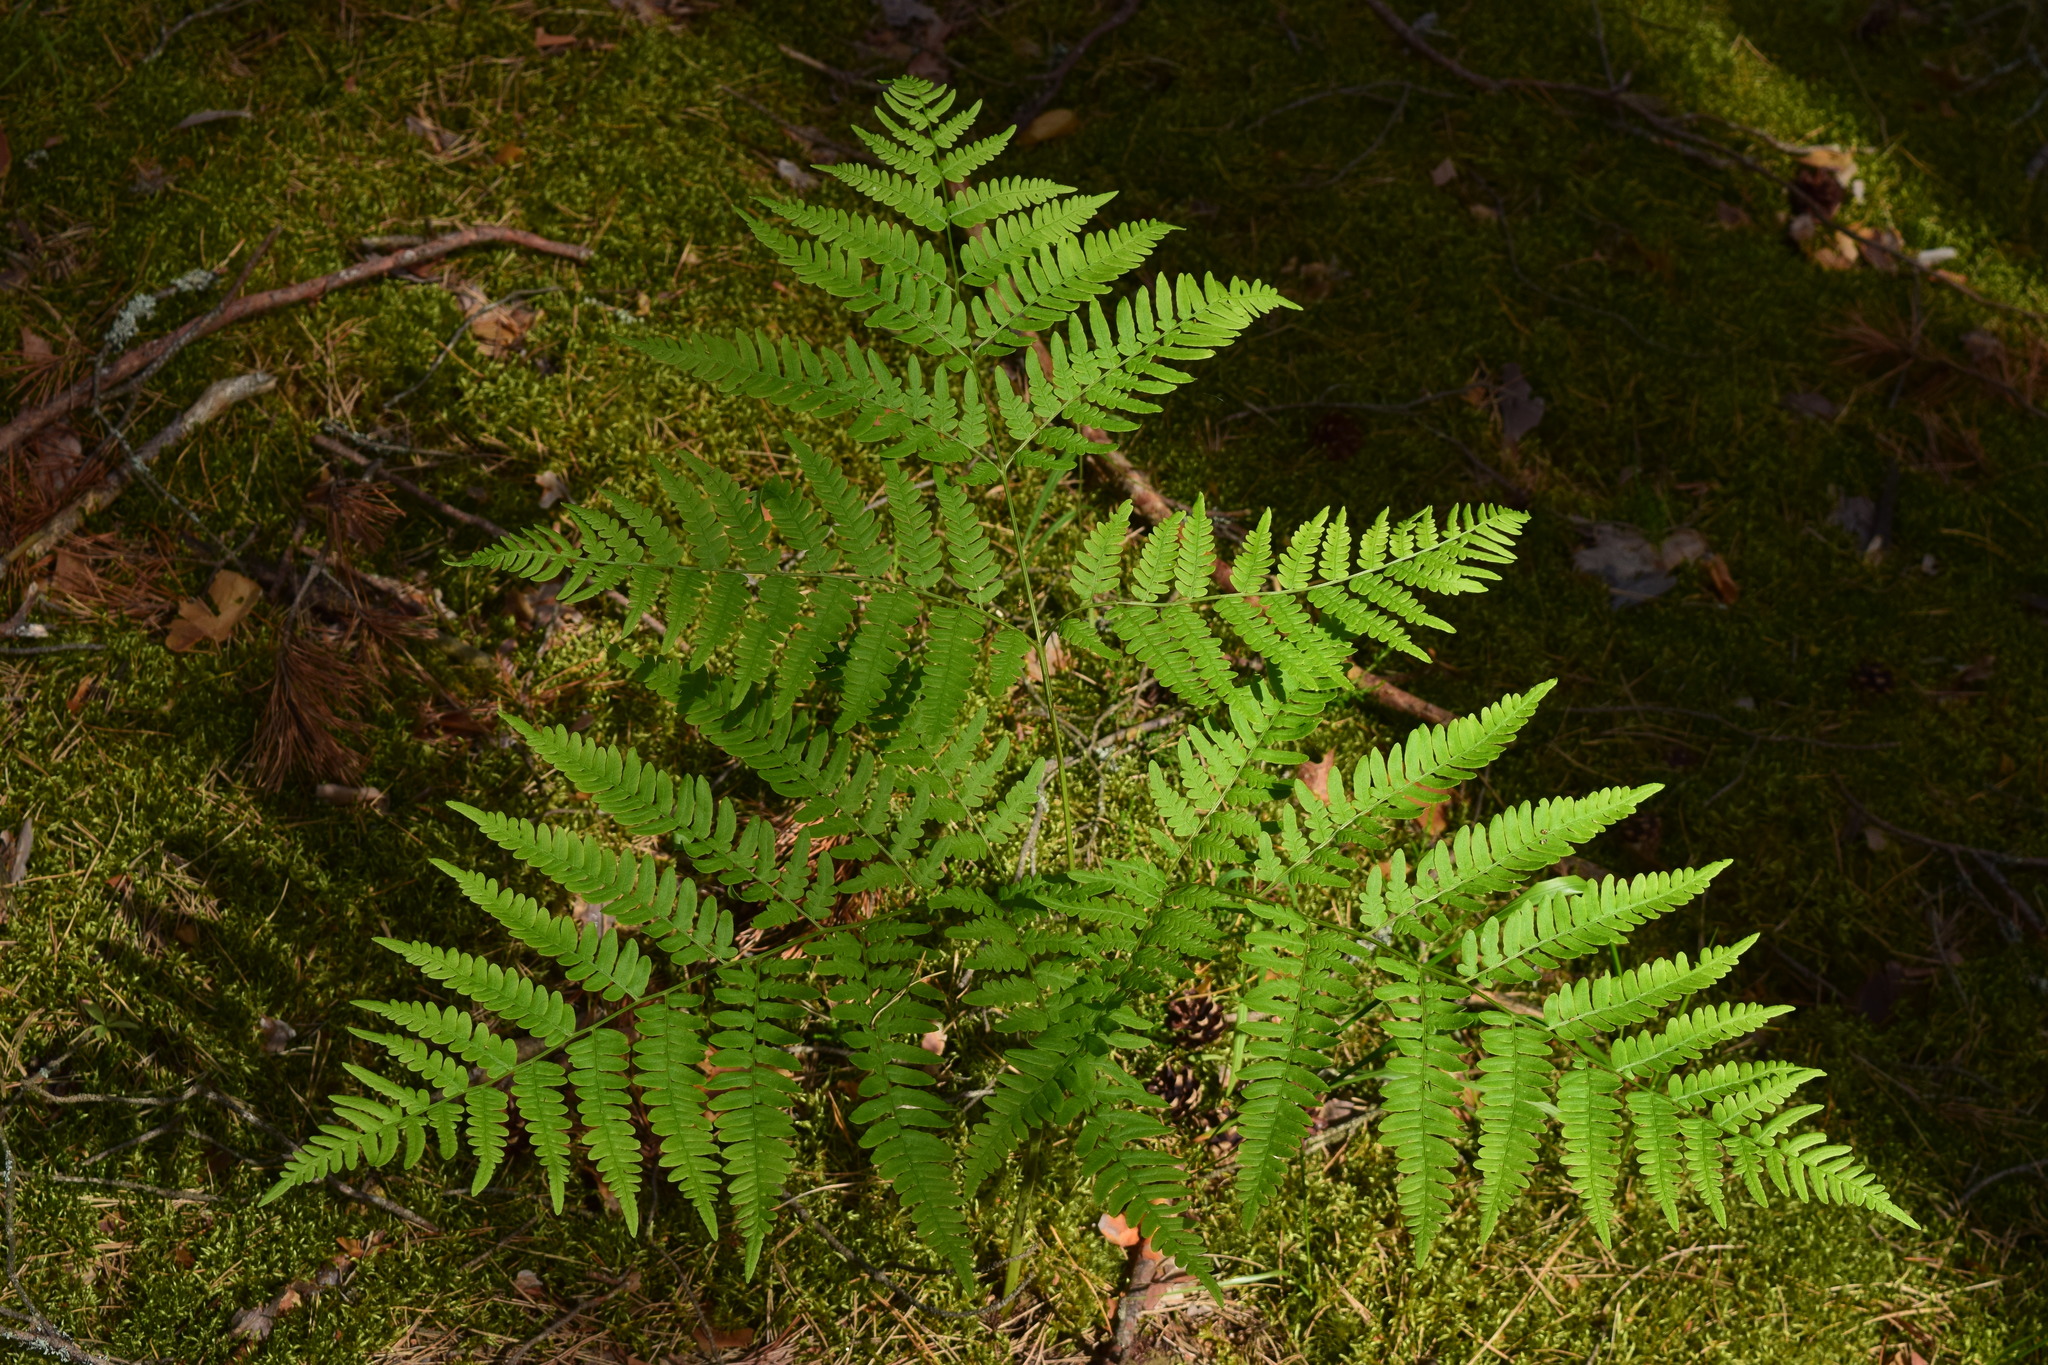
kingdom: Plantae
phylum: Tracheophyta
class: Polypodiopsida
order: Polypodiales
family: Dennstaedtiaceae
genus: Pteridium
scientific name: Pteridium aquilinum
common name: Bracken
